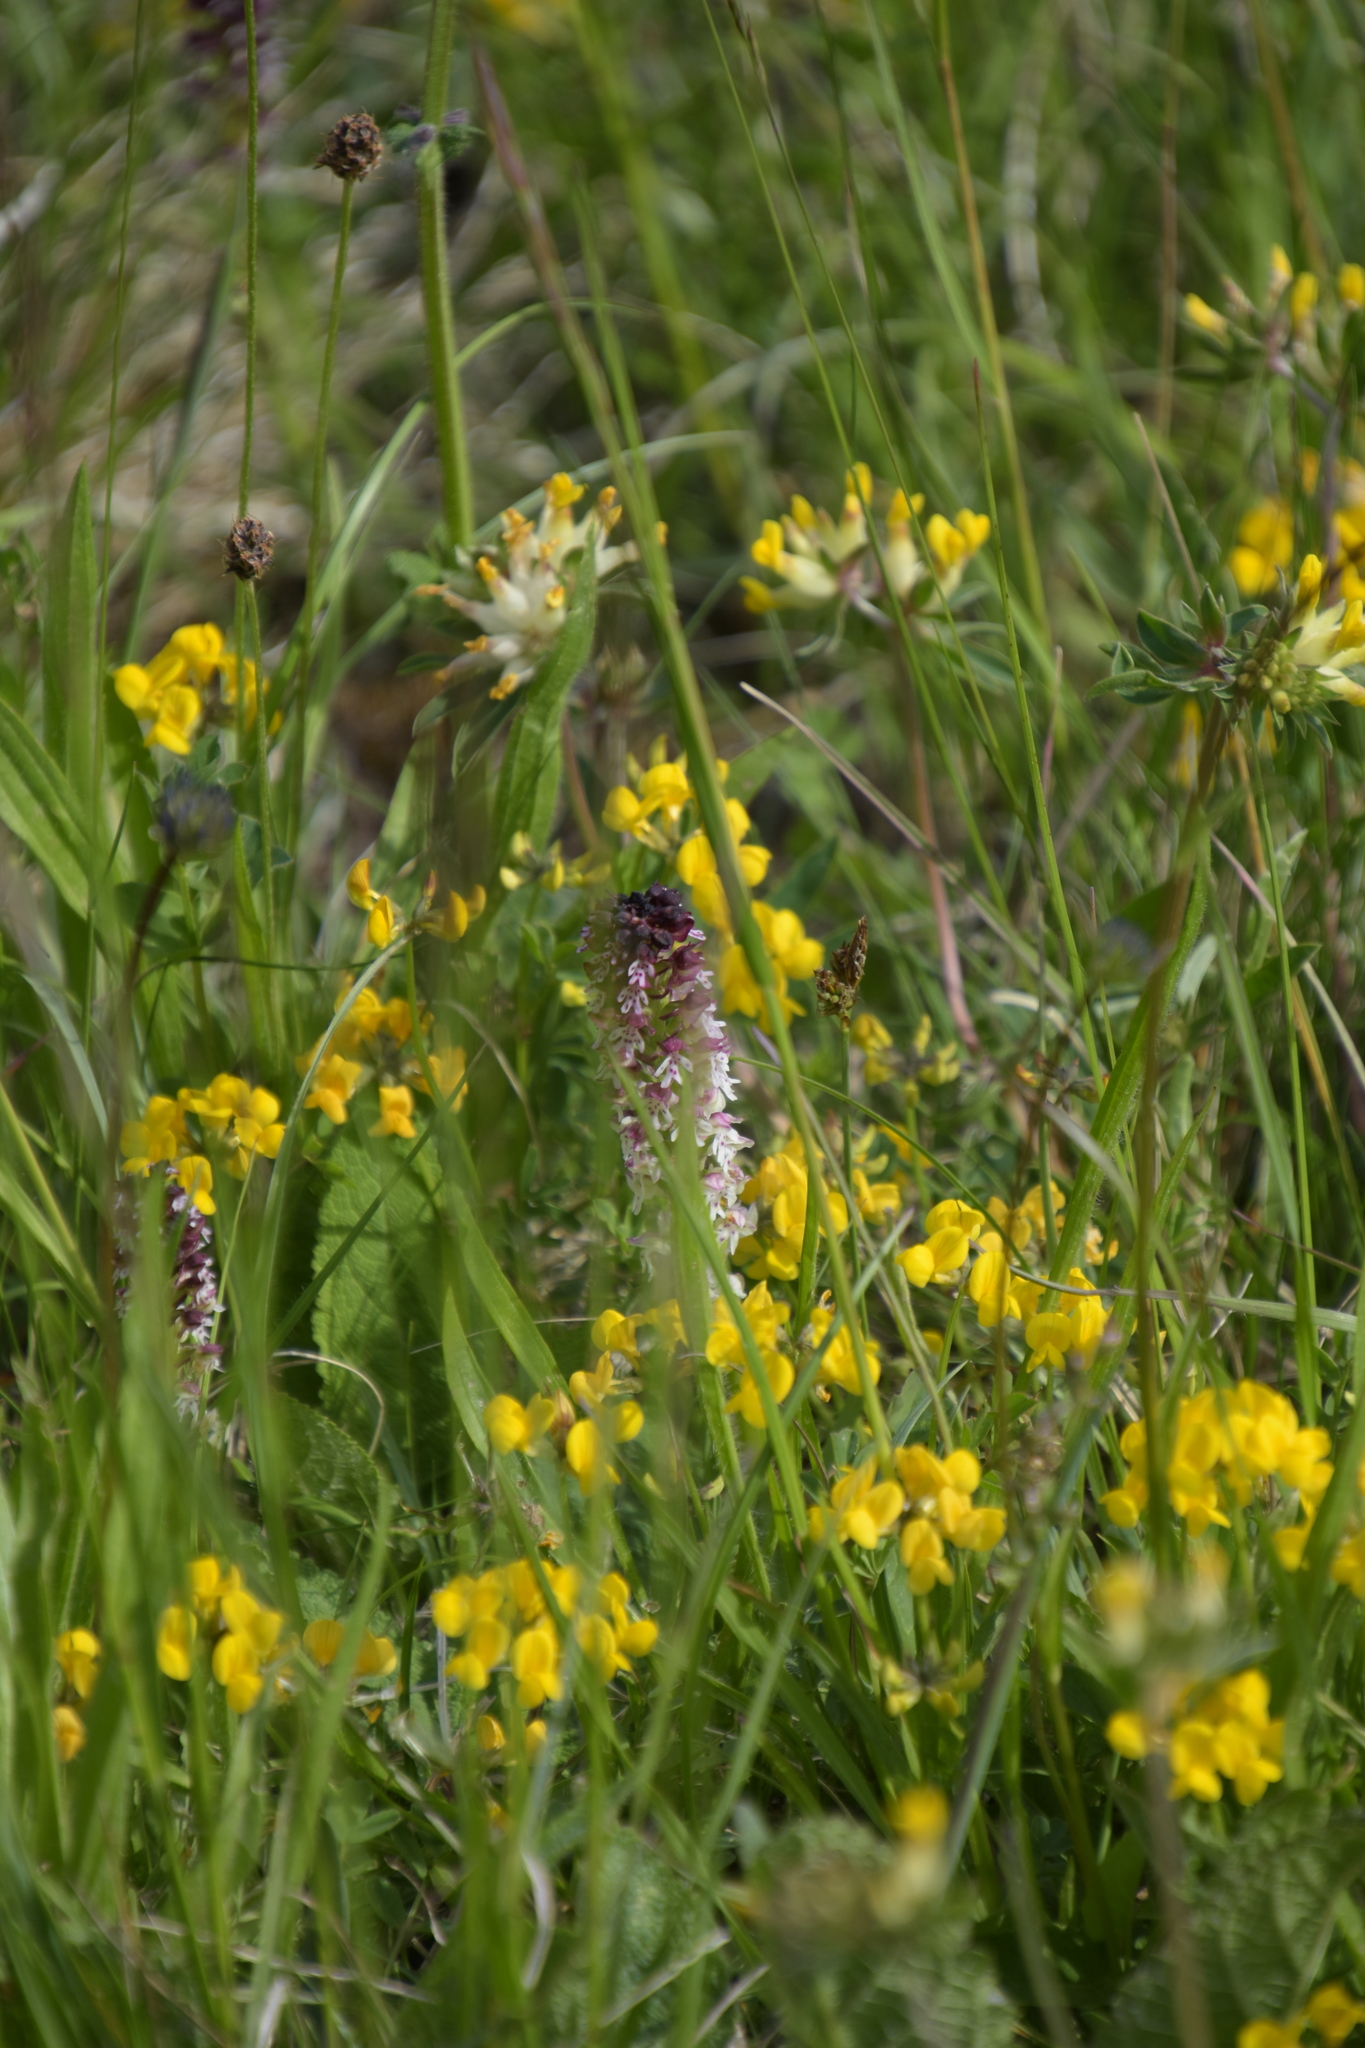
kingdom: Plantae
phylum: Tracheophyta
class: Liliopsida
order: Asparagales
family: Orchidaceae
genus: Neotinea
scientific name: Neotinea ustulata
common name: Burnt orchid
